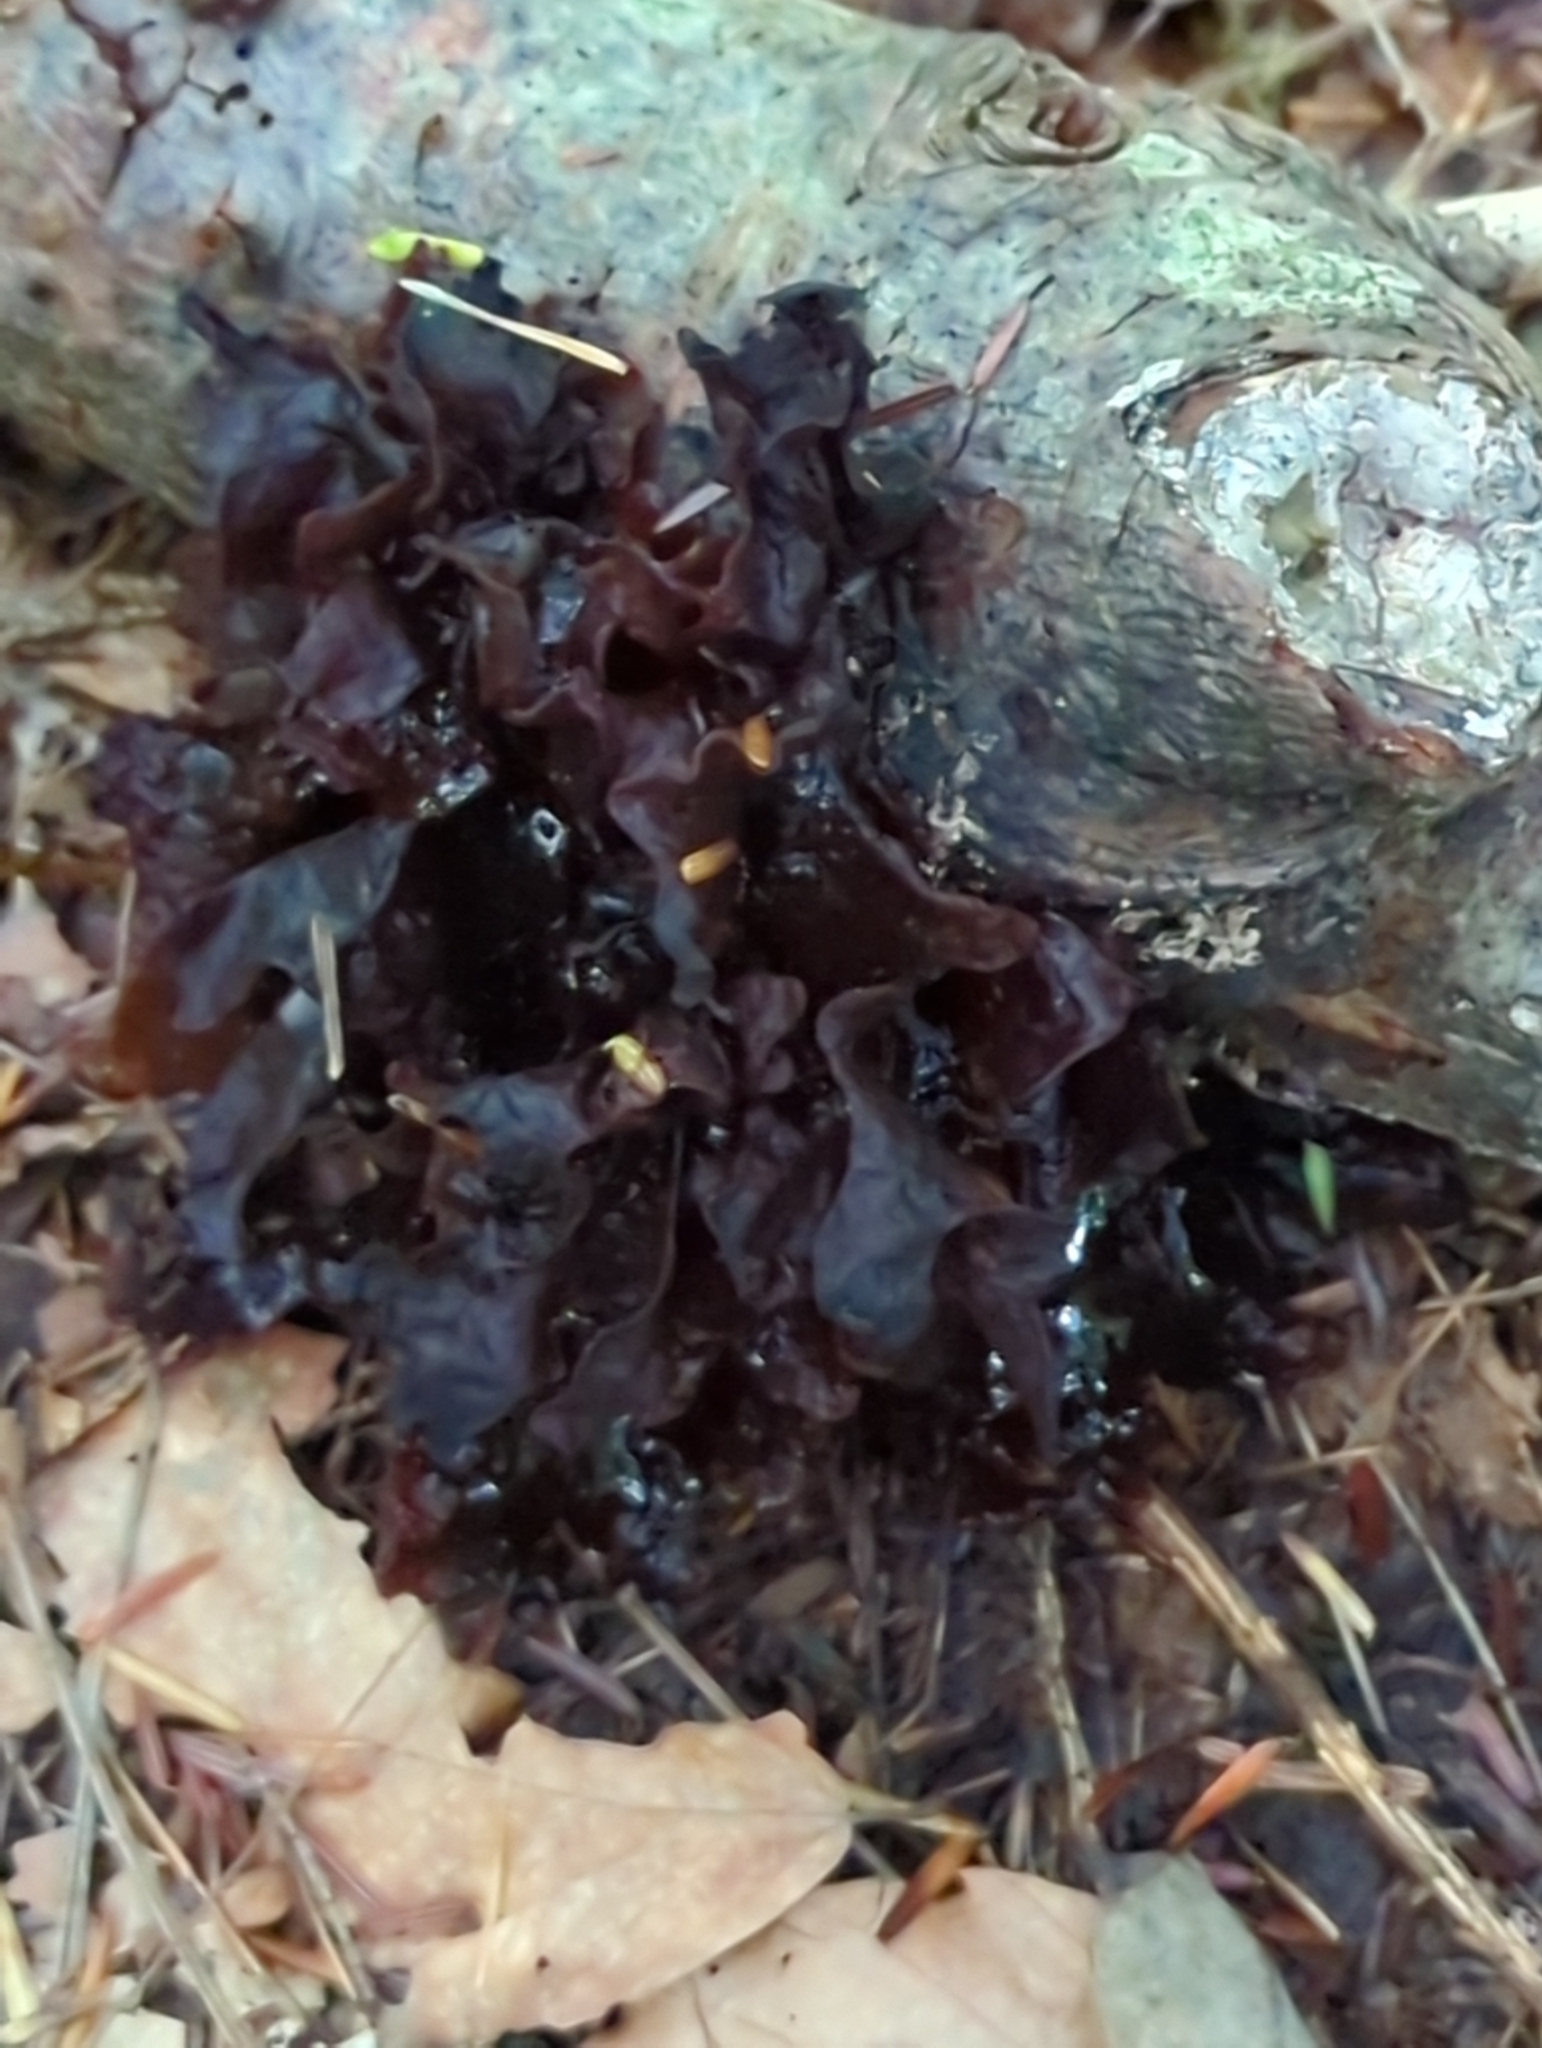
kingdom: Fungi
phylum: Basidiomycota
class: Tremellomycetes
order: Tremellales
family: Tremellaceae
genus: Phaeotremella
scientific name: Phaeotremella foliacea
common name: Leafy brain
